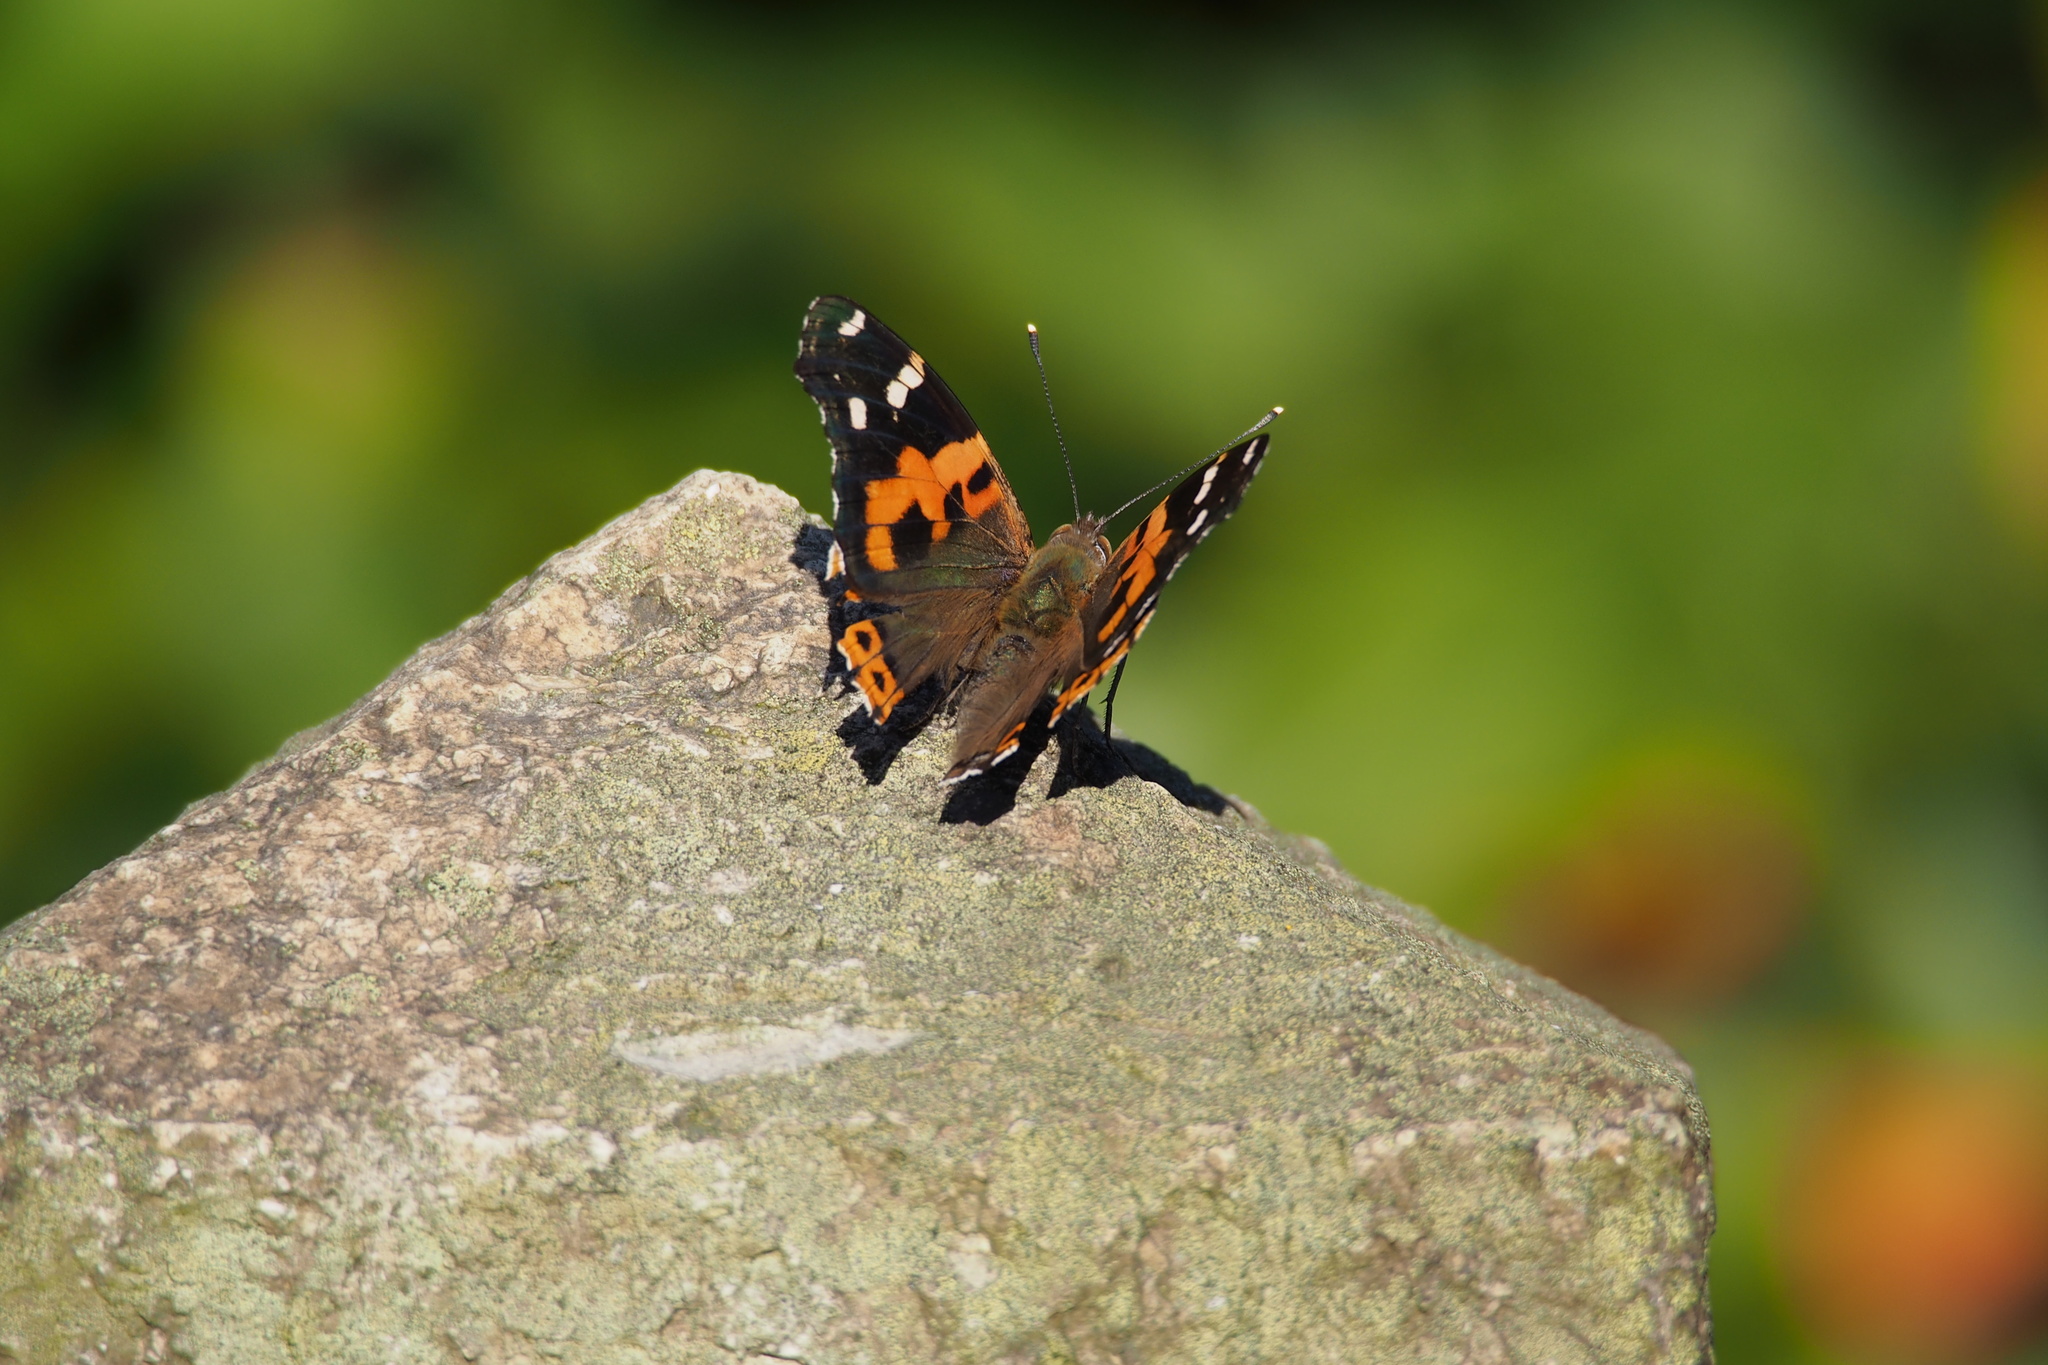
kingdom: Animalia
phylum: Arthropoda
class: Insecta
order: Lepidoptera
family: Nymphalidae
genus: Vanessa
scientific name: Vanessa indica
